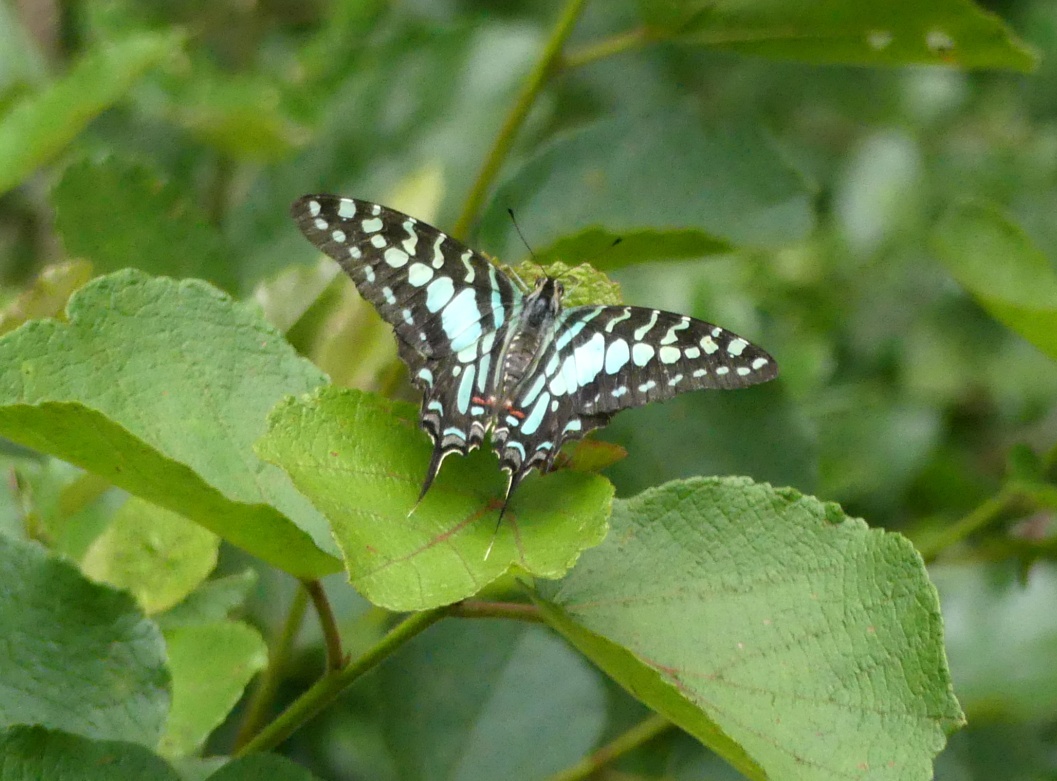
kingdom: Animalia
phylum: Arthropoda
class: Insecta
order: Lepidoptera
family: Papilionidae
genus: Graphium
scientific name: Graphium antheus
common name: Large striped swordtail
